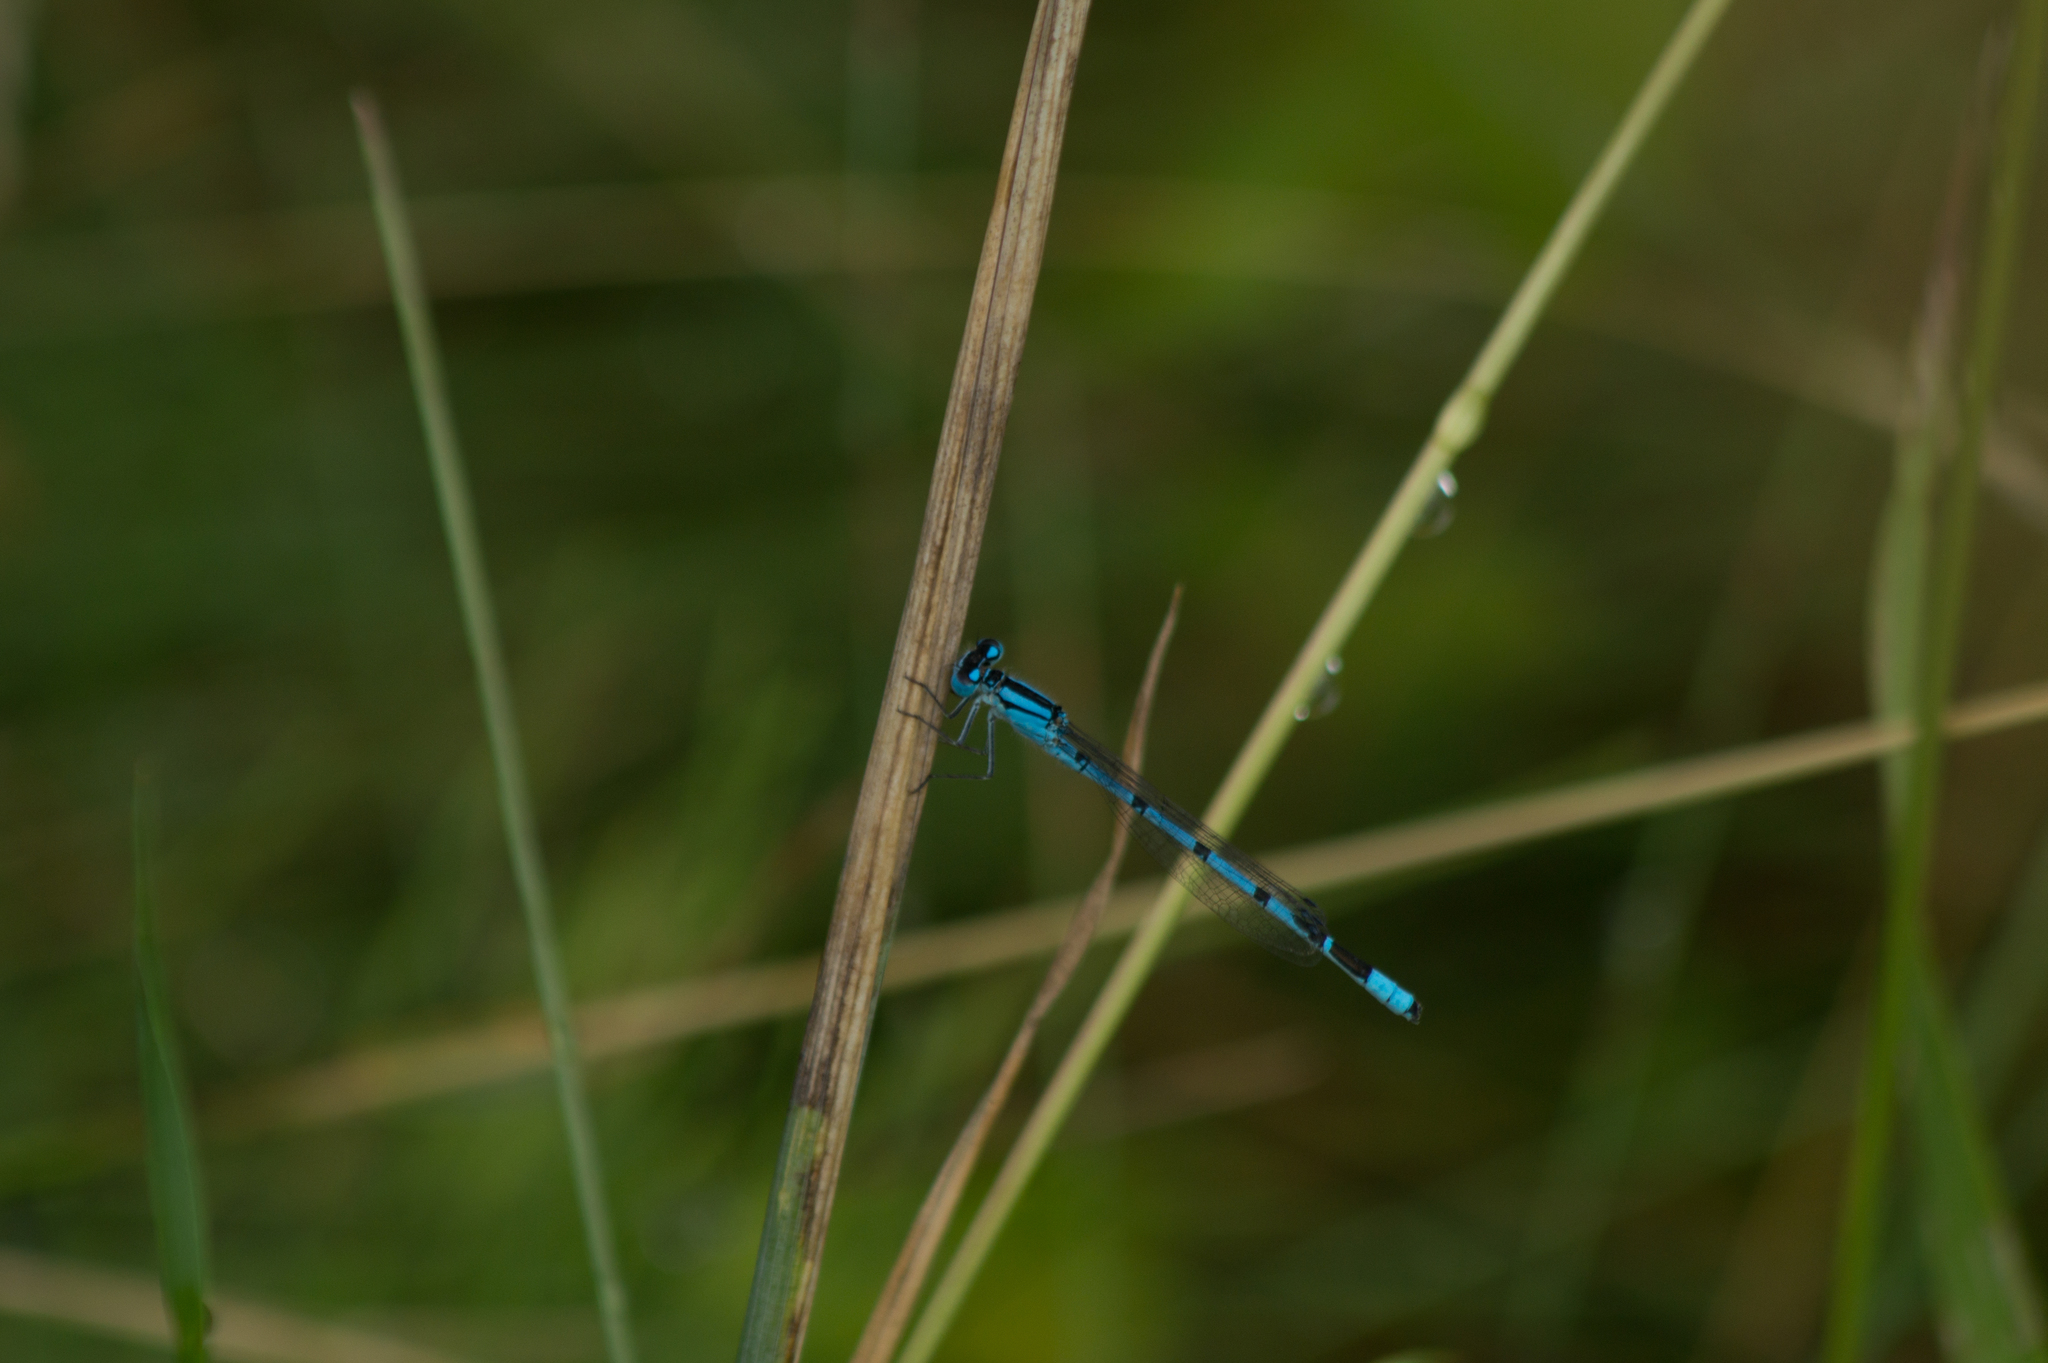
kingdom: Animalia
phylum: Arthropoda
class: Insecta
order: Odonata
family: Coenagrionidae
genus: Enallagma
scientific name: Enallagma cyathigerum
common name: Common blue damselfly
